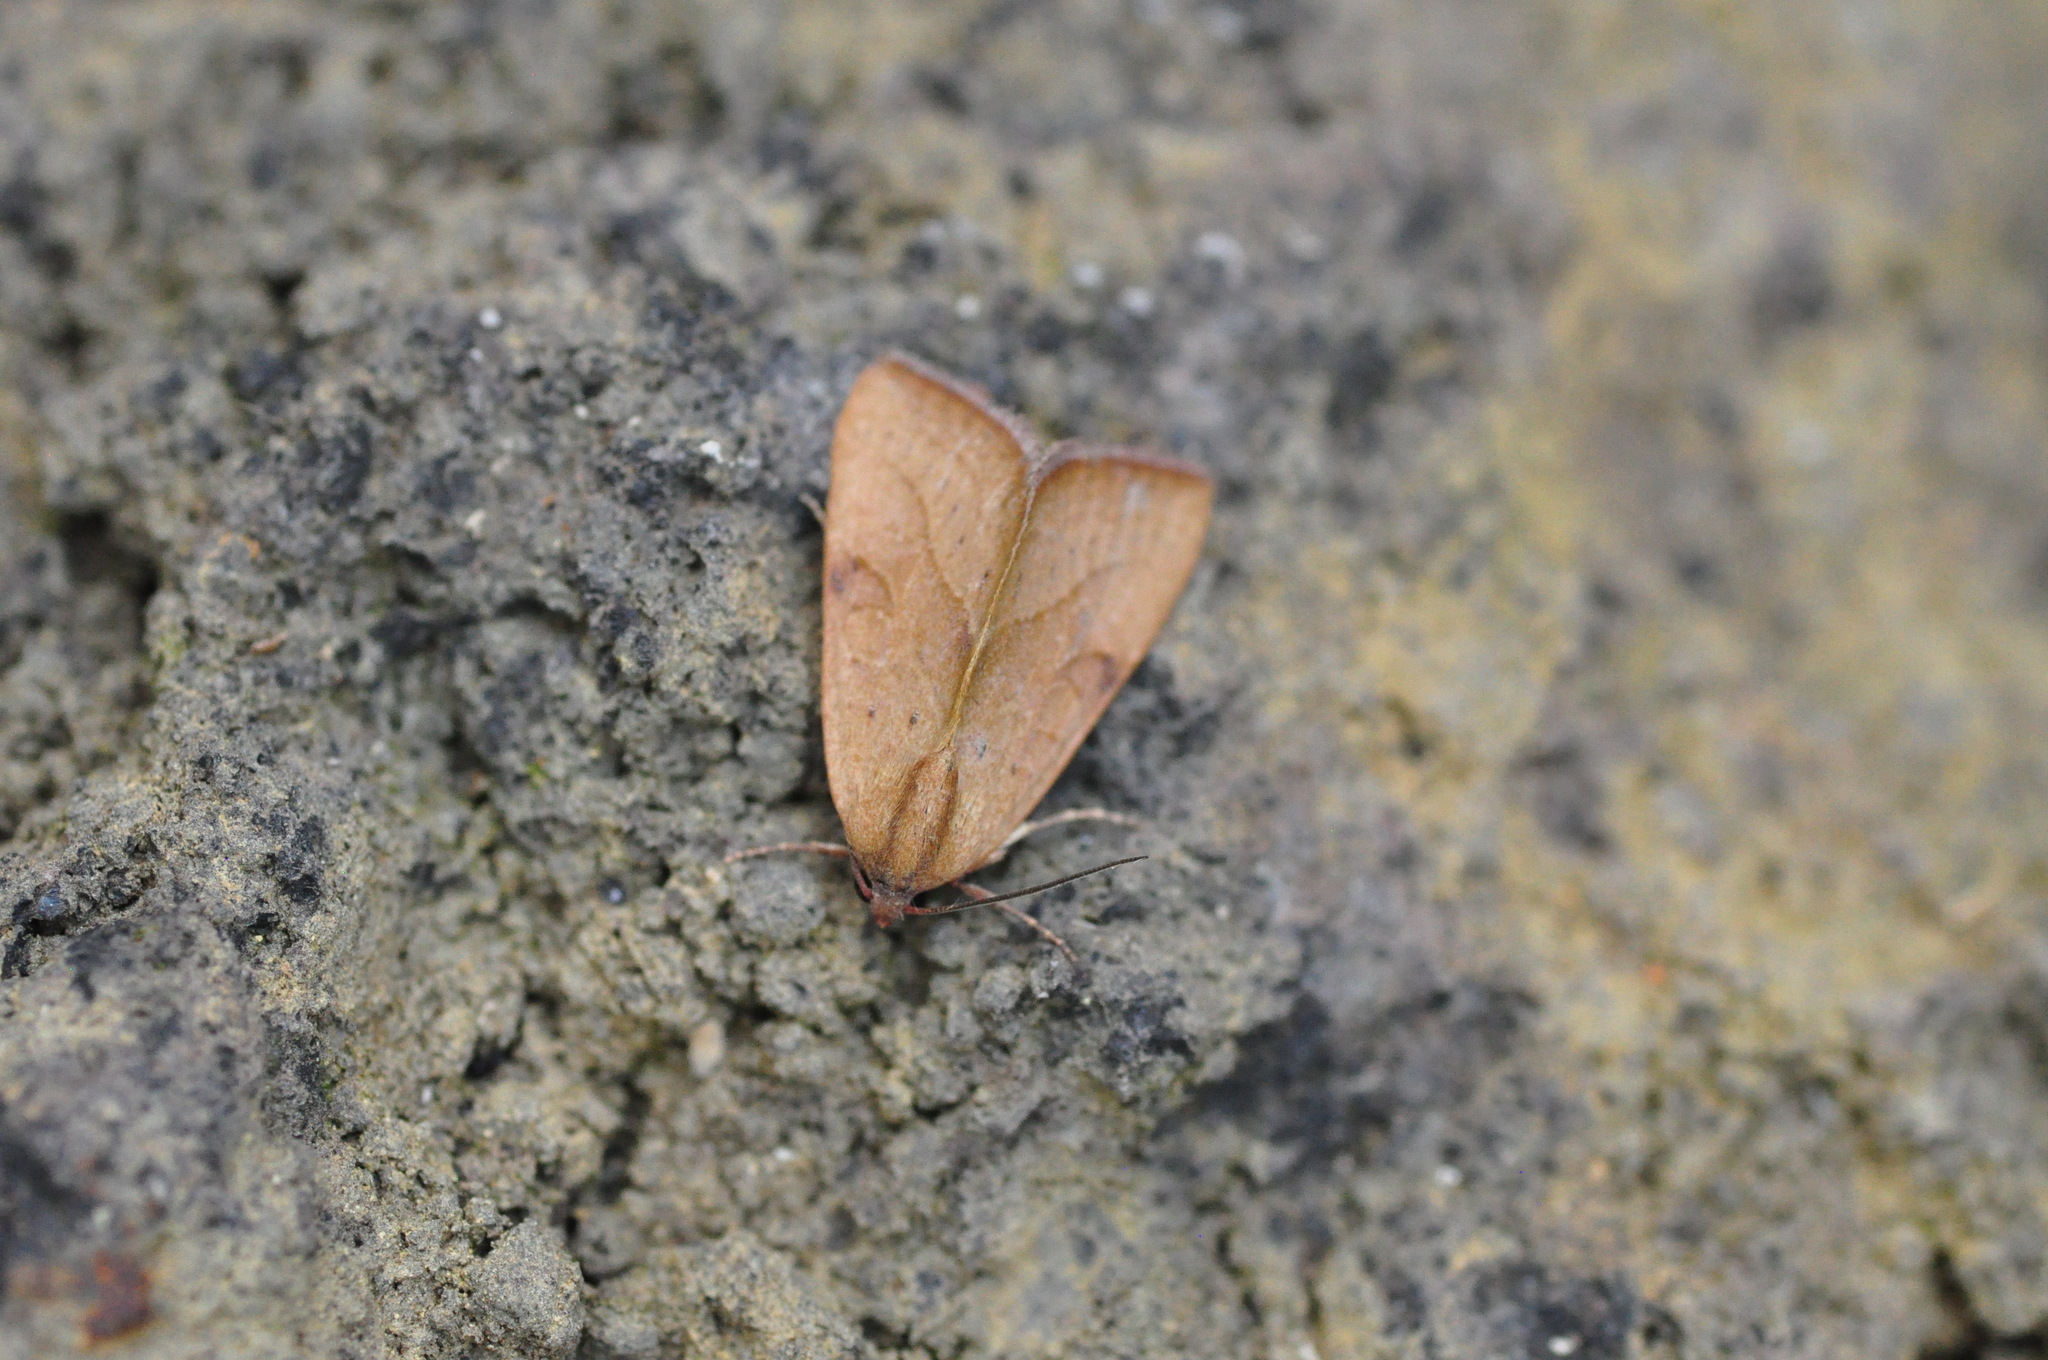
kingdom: Animalia
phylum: Arthropoda
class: Insecta
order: Lepidoptera
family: Noctuidae
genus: Galgula
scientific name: Galgula partita
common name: Wedgeling
